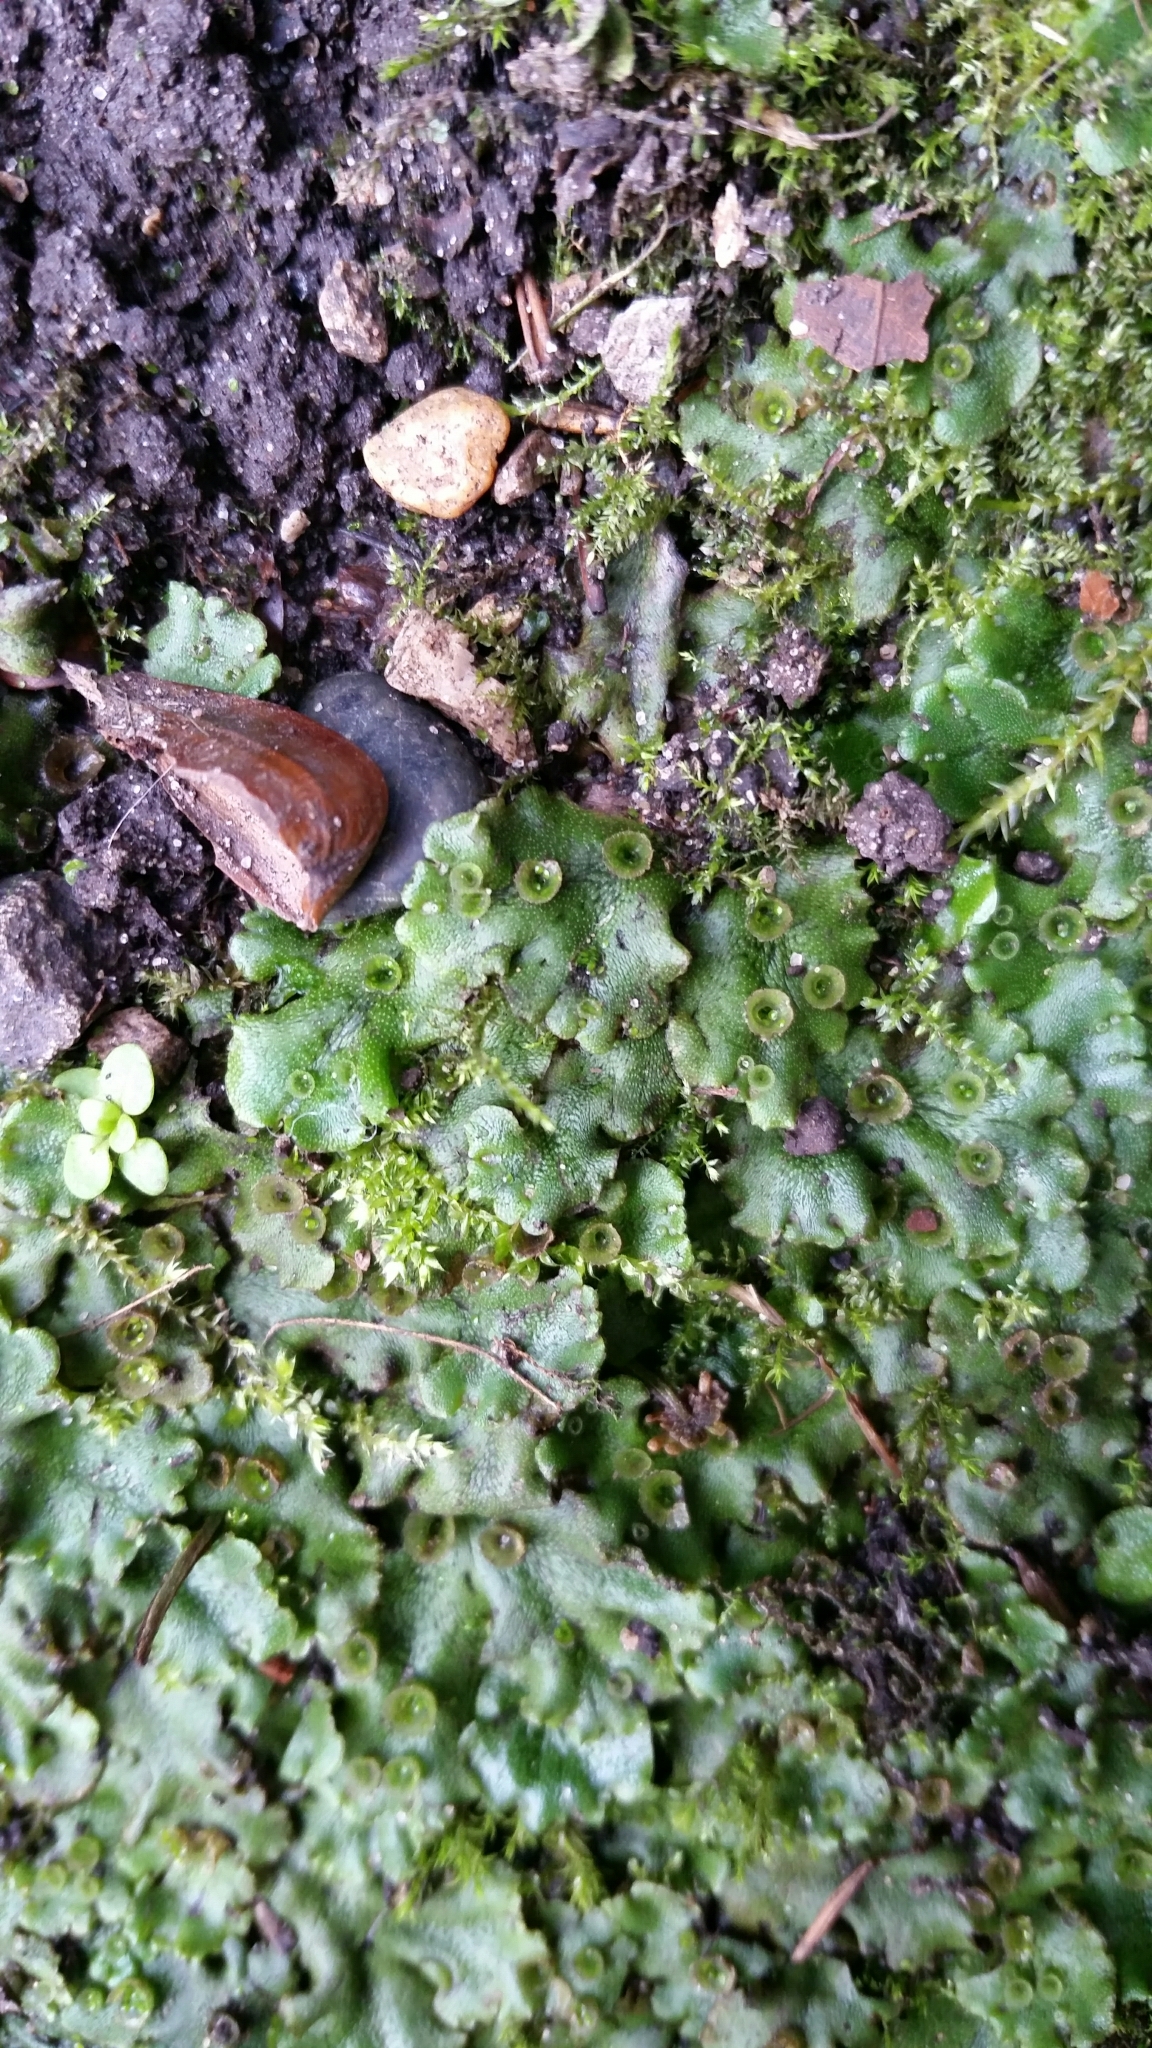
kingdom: Plantae
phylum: Marchantiophyta
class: Marchantiopsida
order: Marchantiales
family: Marchantiaceae
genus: Marchantia
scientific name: Marchantia polymorpha
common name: Common liverwort
